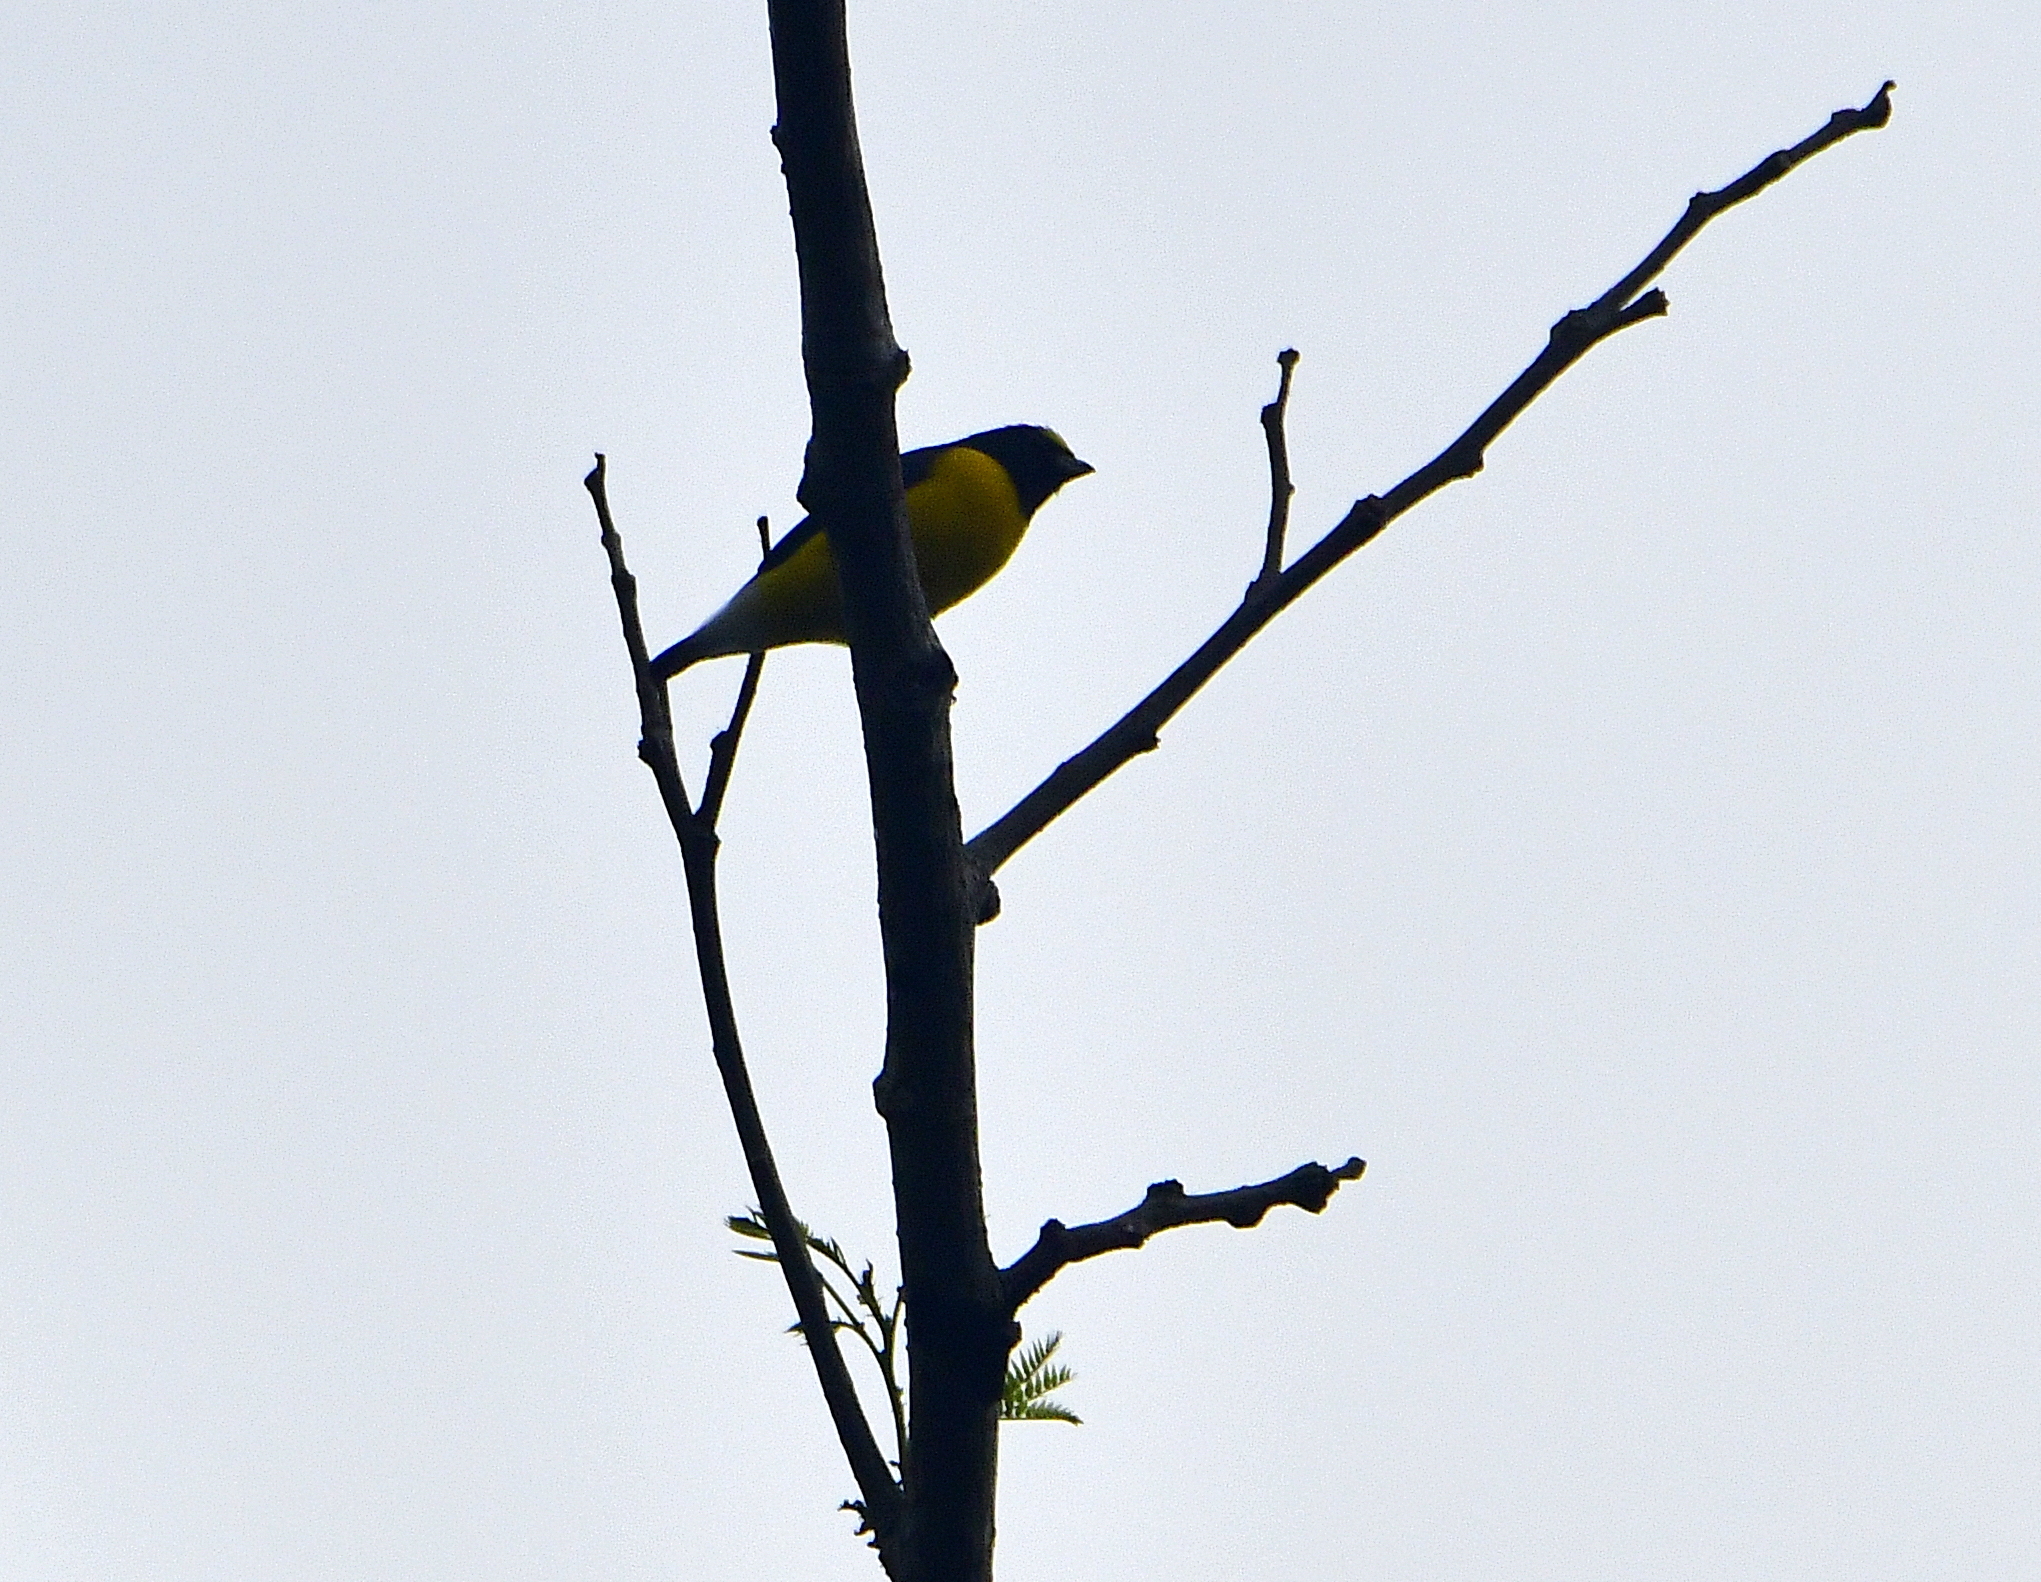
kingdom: Animalia
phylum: Chordata
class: Aves
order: Passeriformes
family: Fringillidae
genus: Euphonia
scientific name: Euphonia godmani
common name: West mexican euphonia
